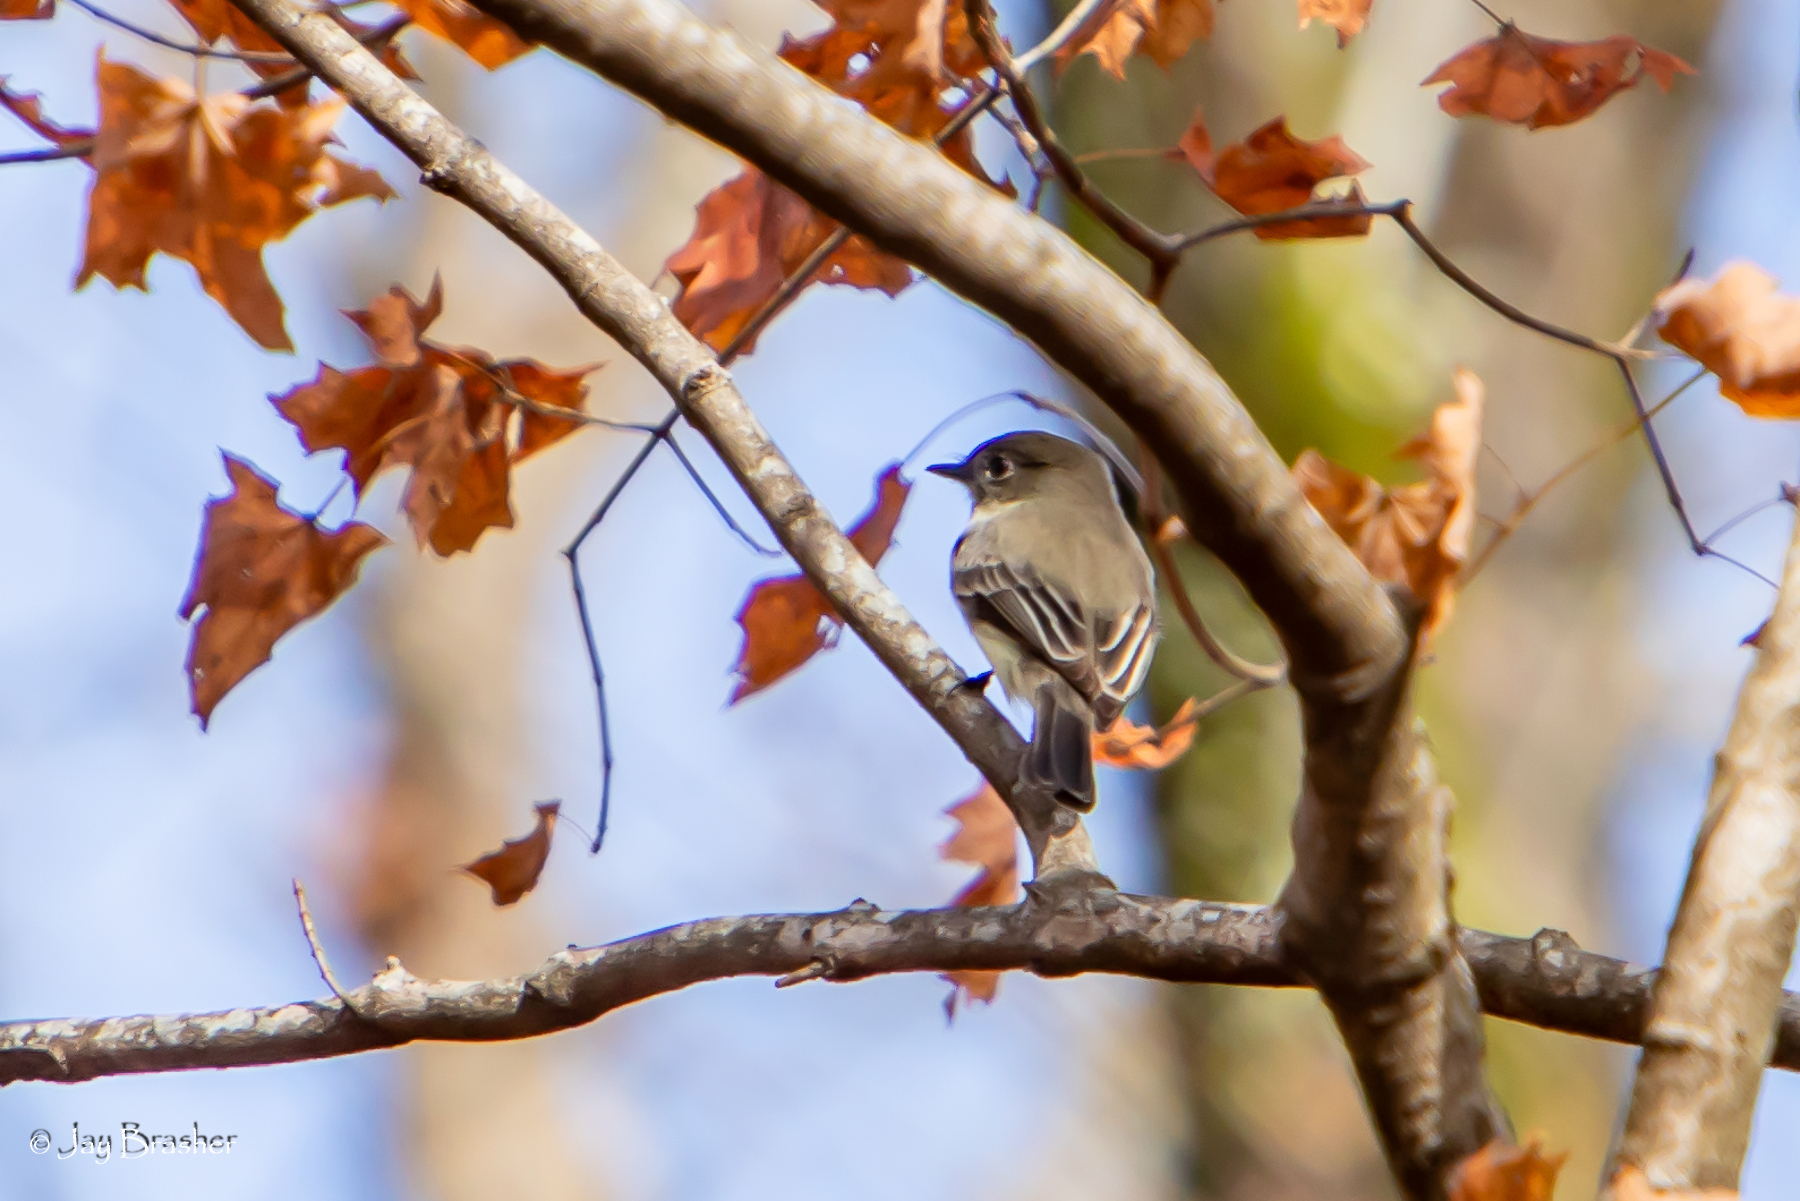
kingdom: Animalia
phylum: Chordata
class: Aves
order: Passeriformes
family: Tyrannidae
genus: Sayornis
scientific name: Sayornis phoebe
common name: Eastern phoebe
